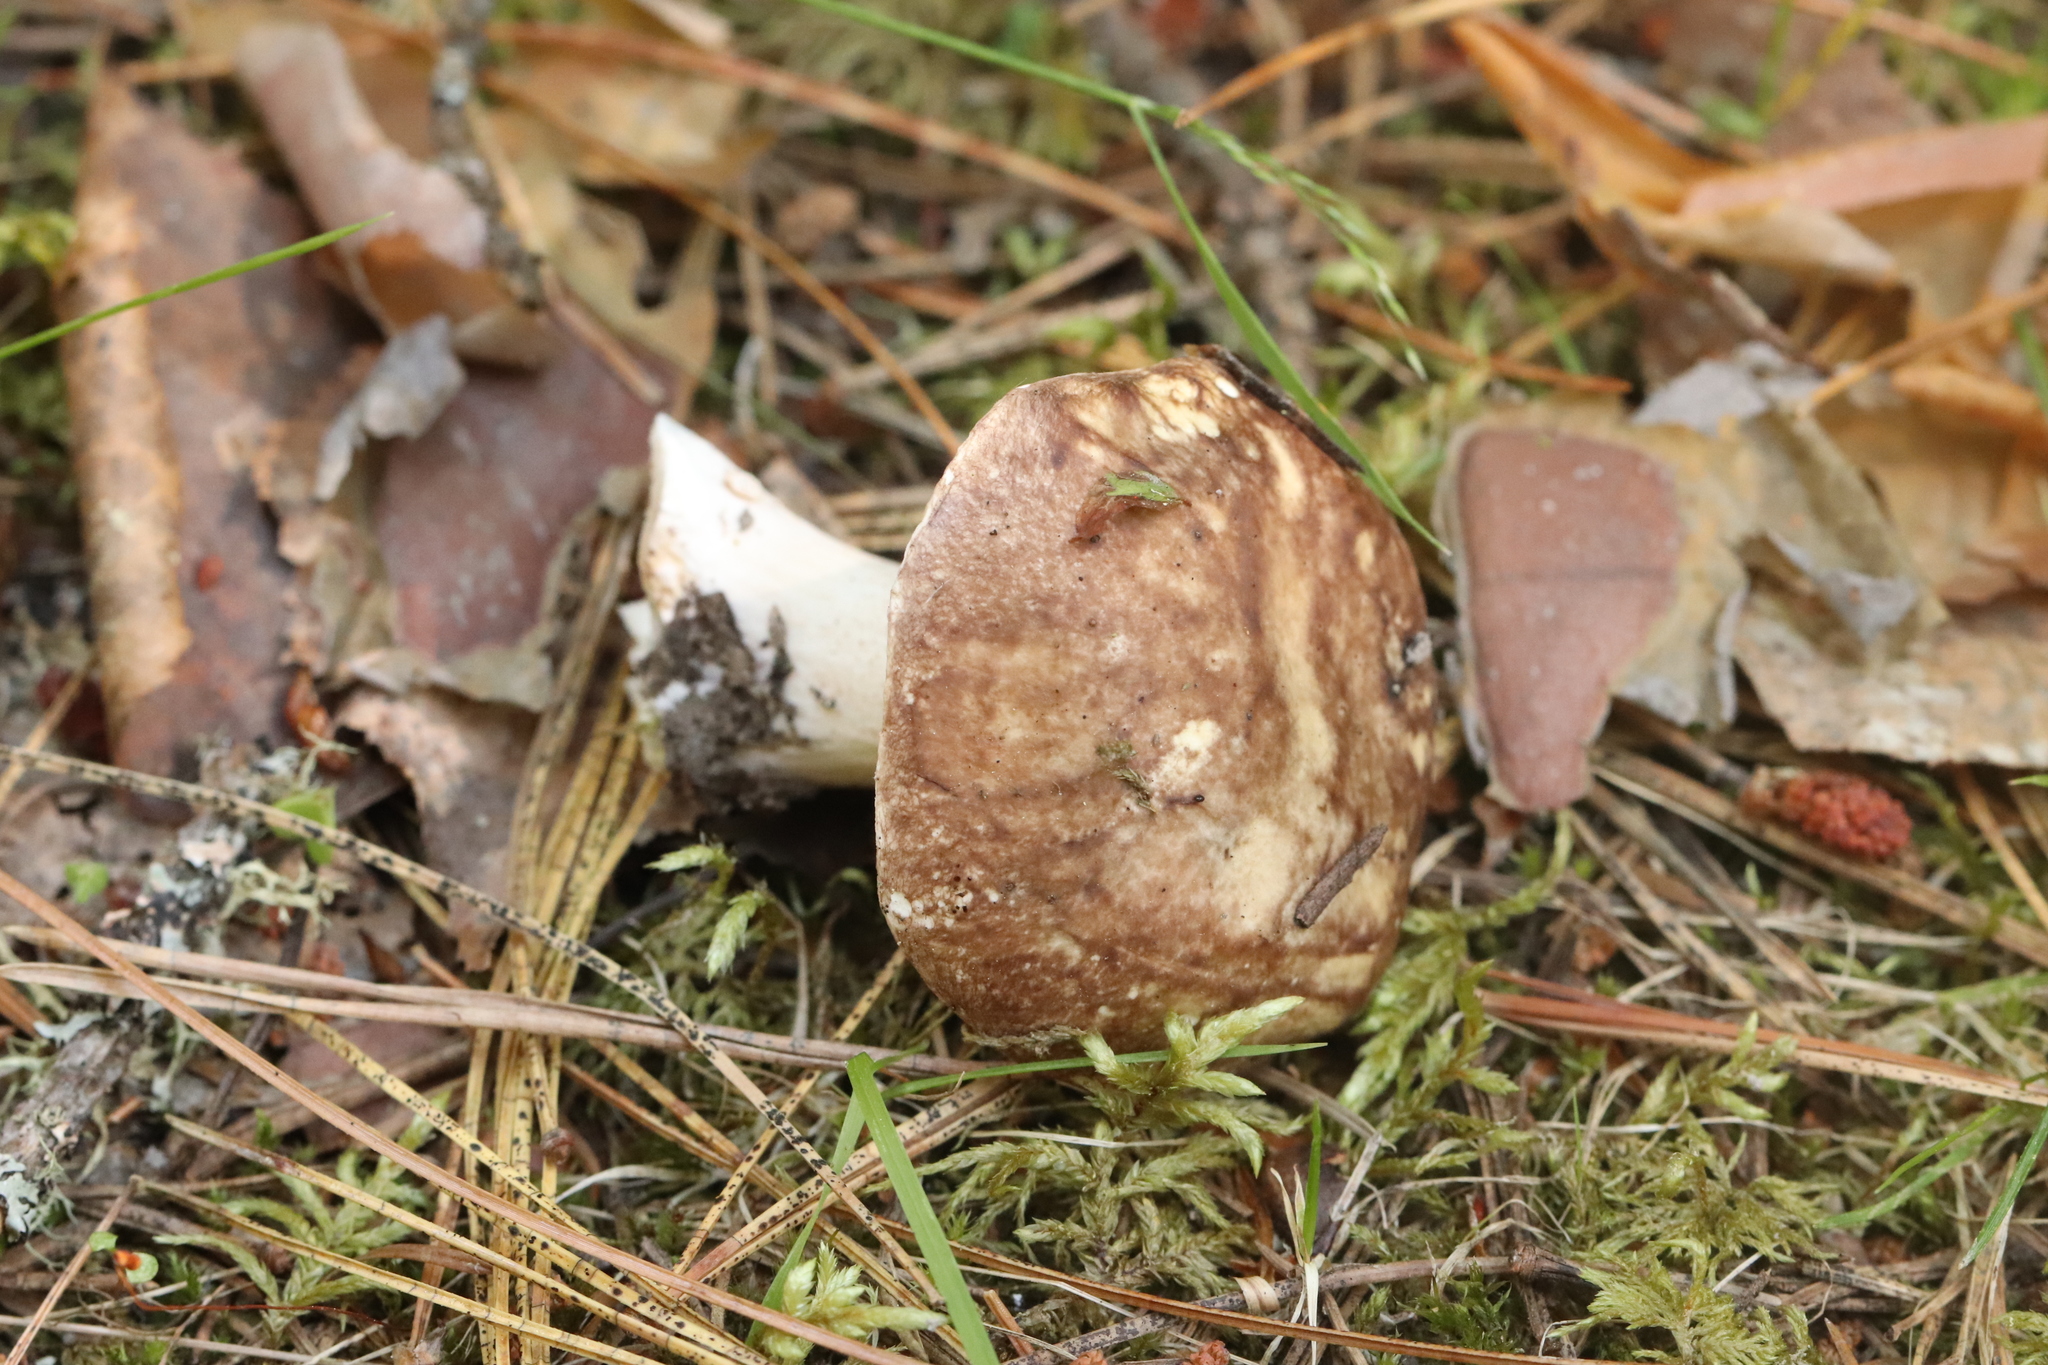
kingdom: Fungi
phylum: Basidiomycota
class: Agaricomycetes
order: Boletales
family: Suillaceae
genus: Suillus
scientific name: Suillus placidus
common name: Slippery white bolete
